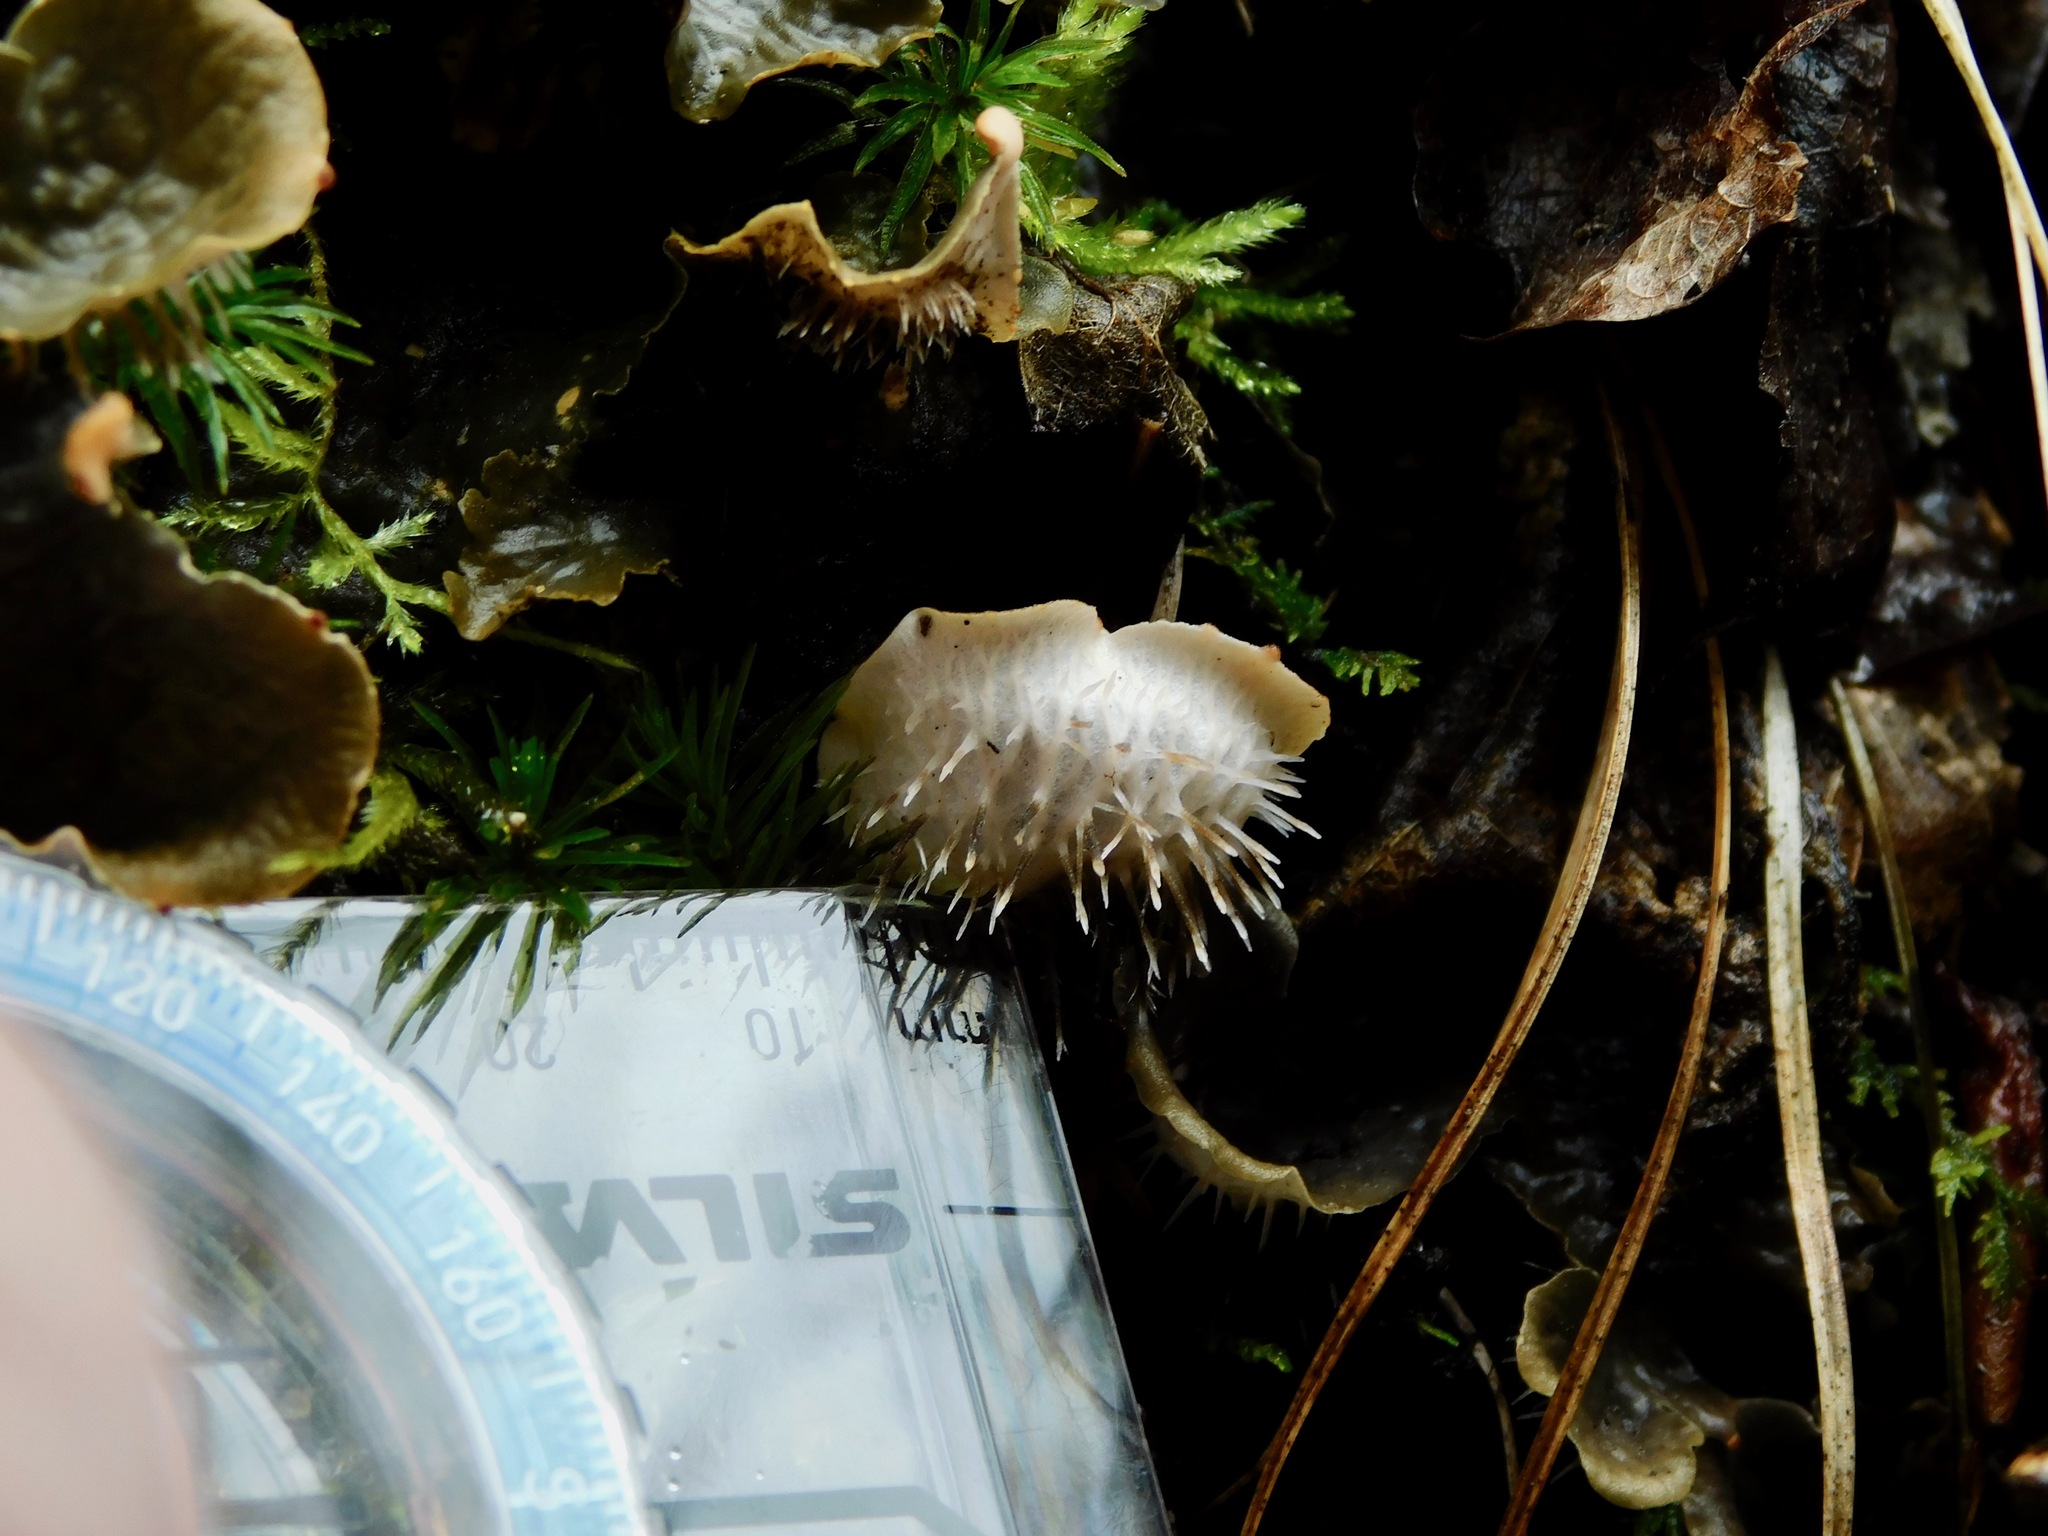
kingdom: Fungi
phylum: Ascomycota
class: Lecanoromycetes
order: Peltigerales
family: Peltigeraceae
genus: Peltigera
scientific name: Peltigera praetextata
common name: Scaly dog-lichen
